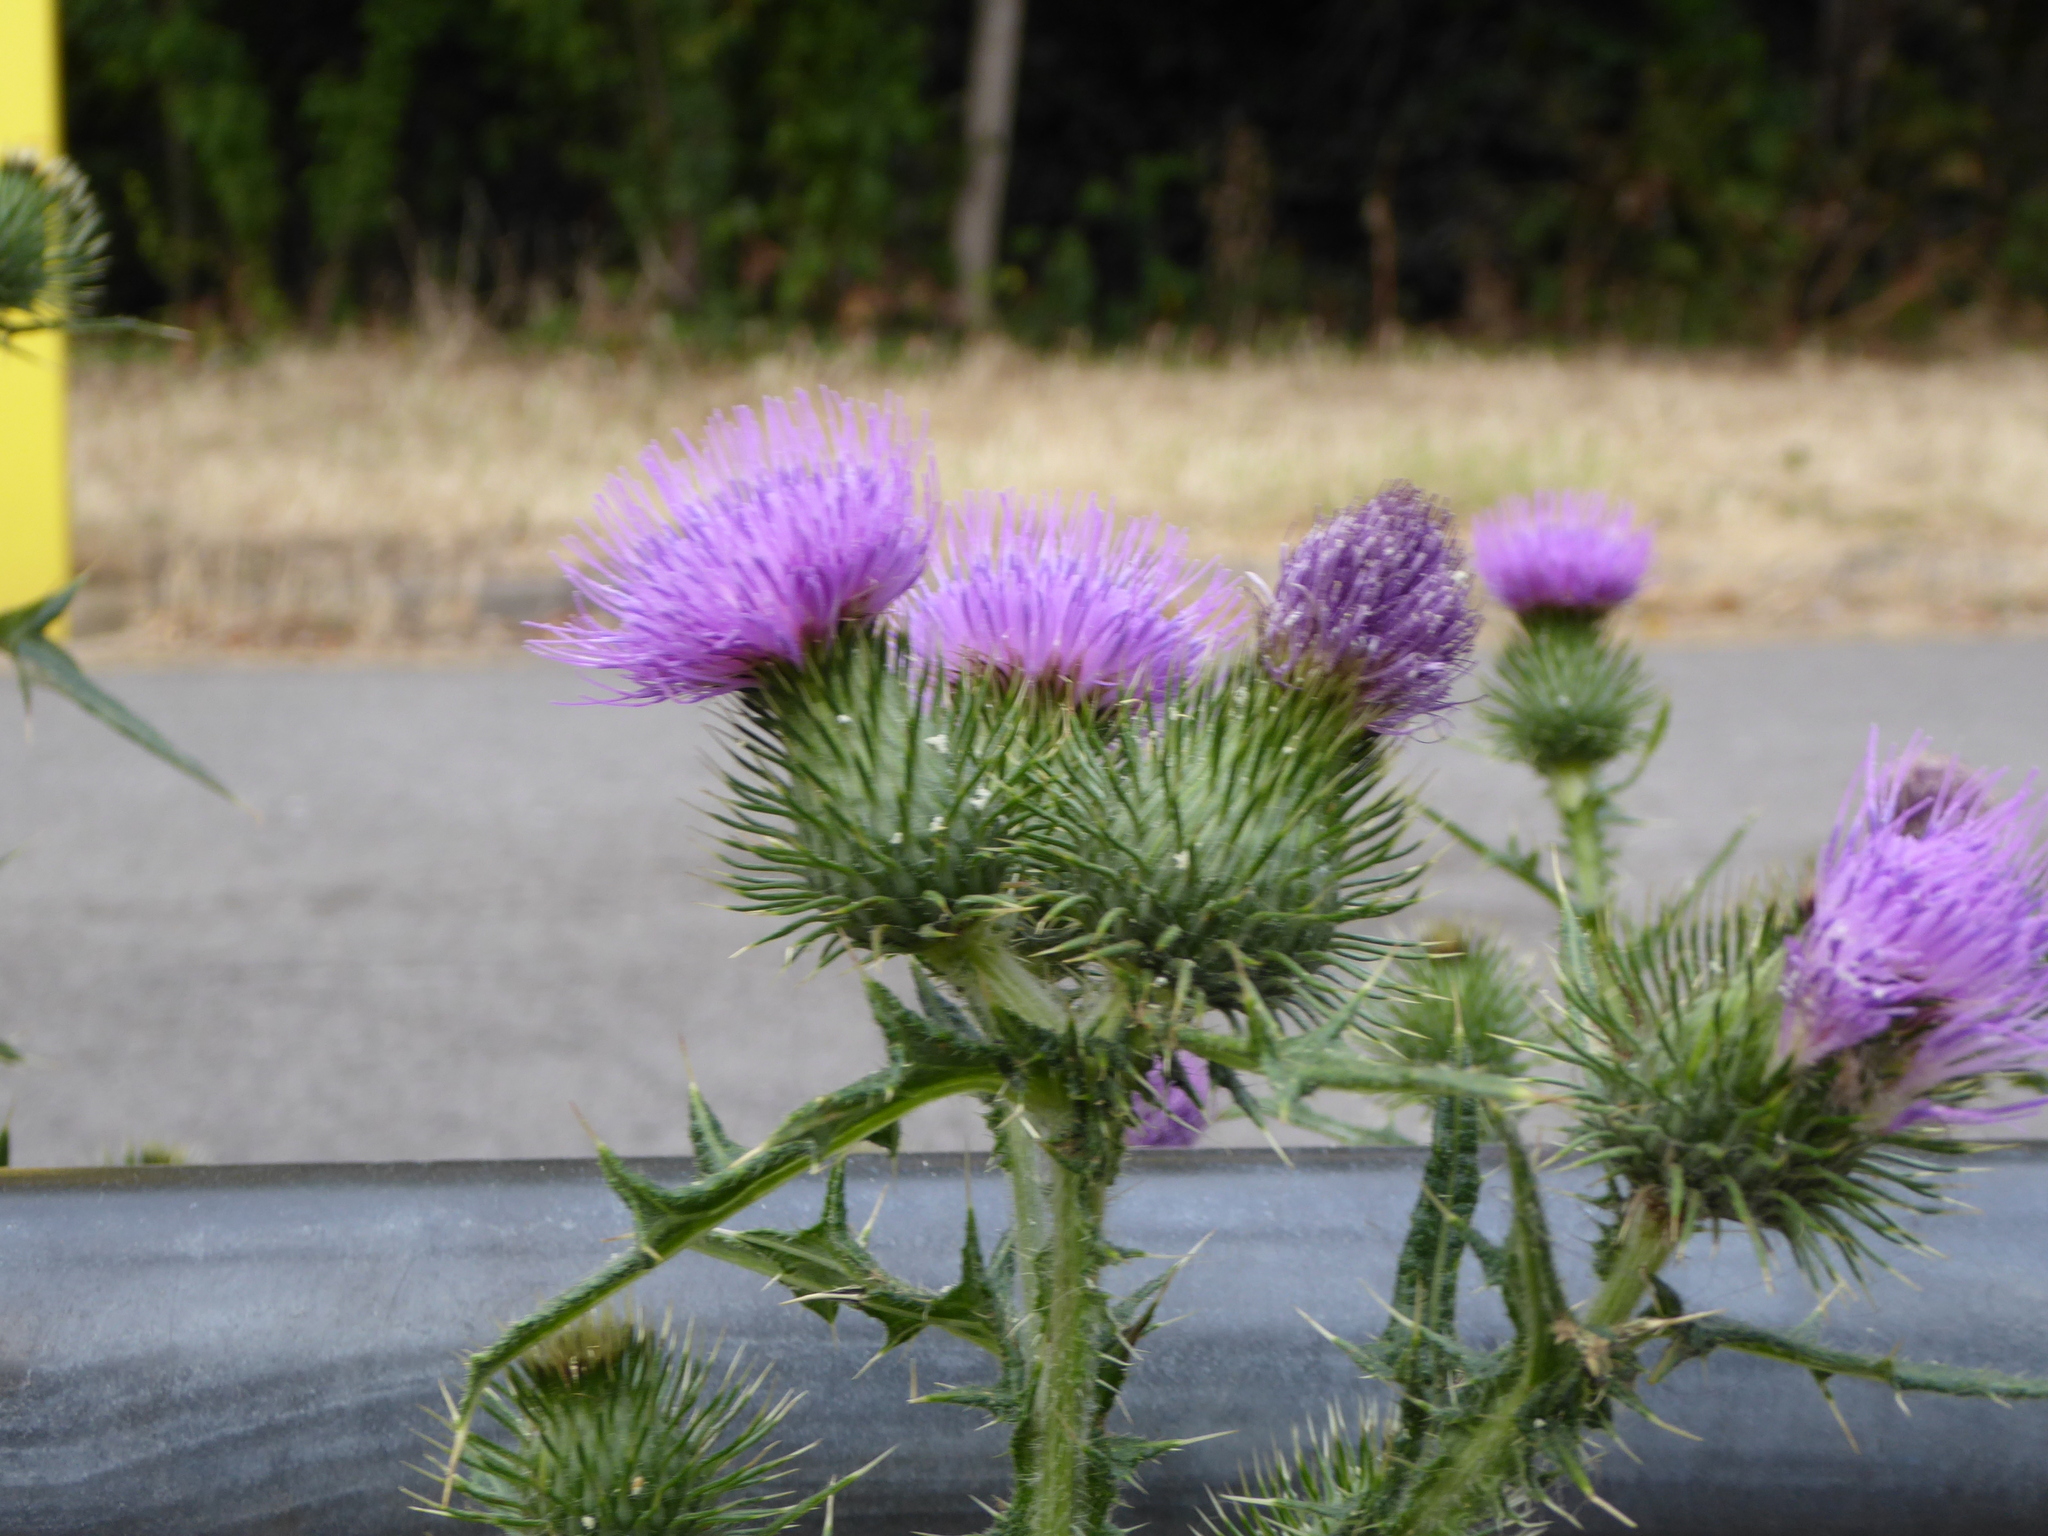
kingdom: Plantae
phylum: Tracheophyta
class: Magnoliopsida
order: Asterales
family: Asteraceae
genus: Cirsium
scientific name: Cirsium vulgare
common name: Bull thistle
